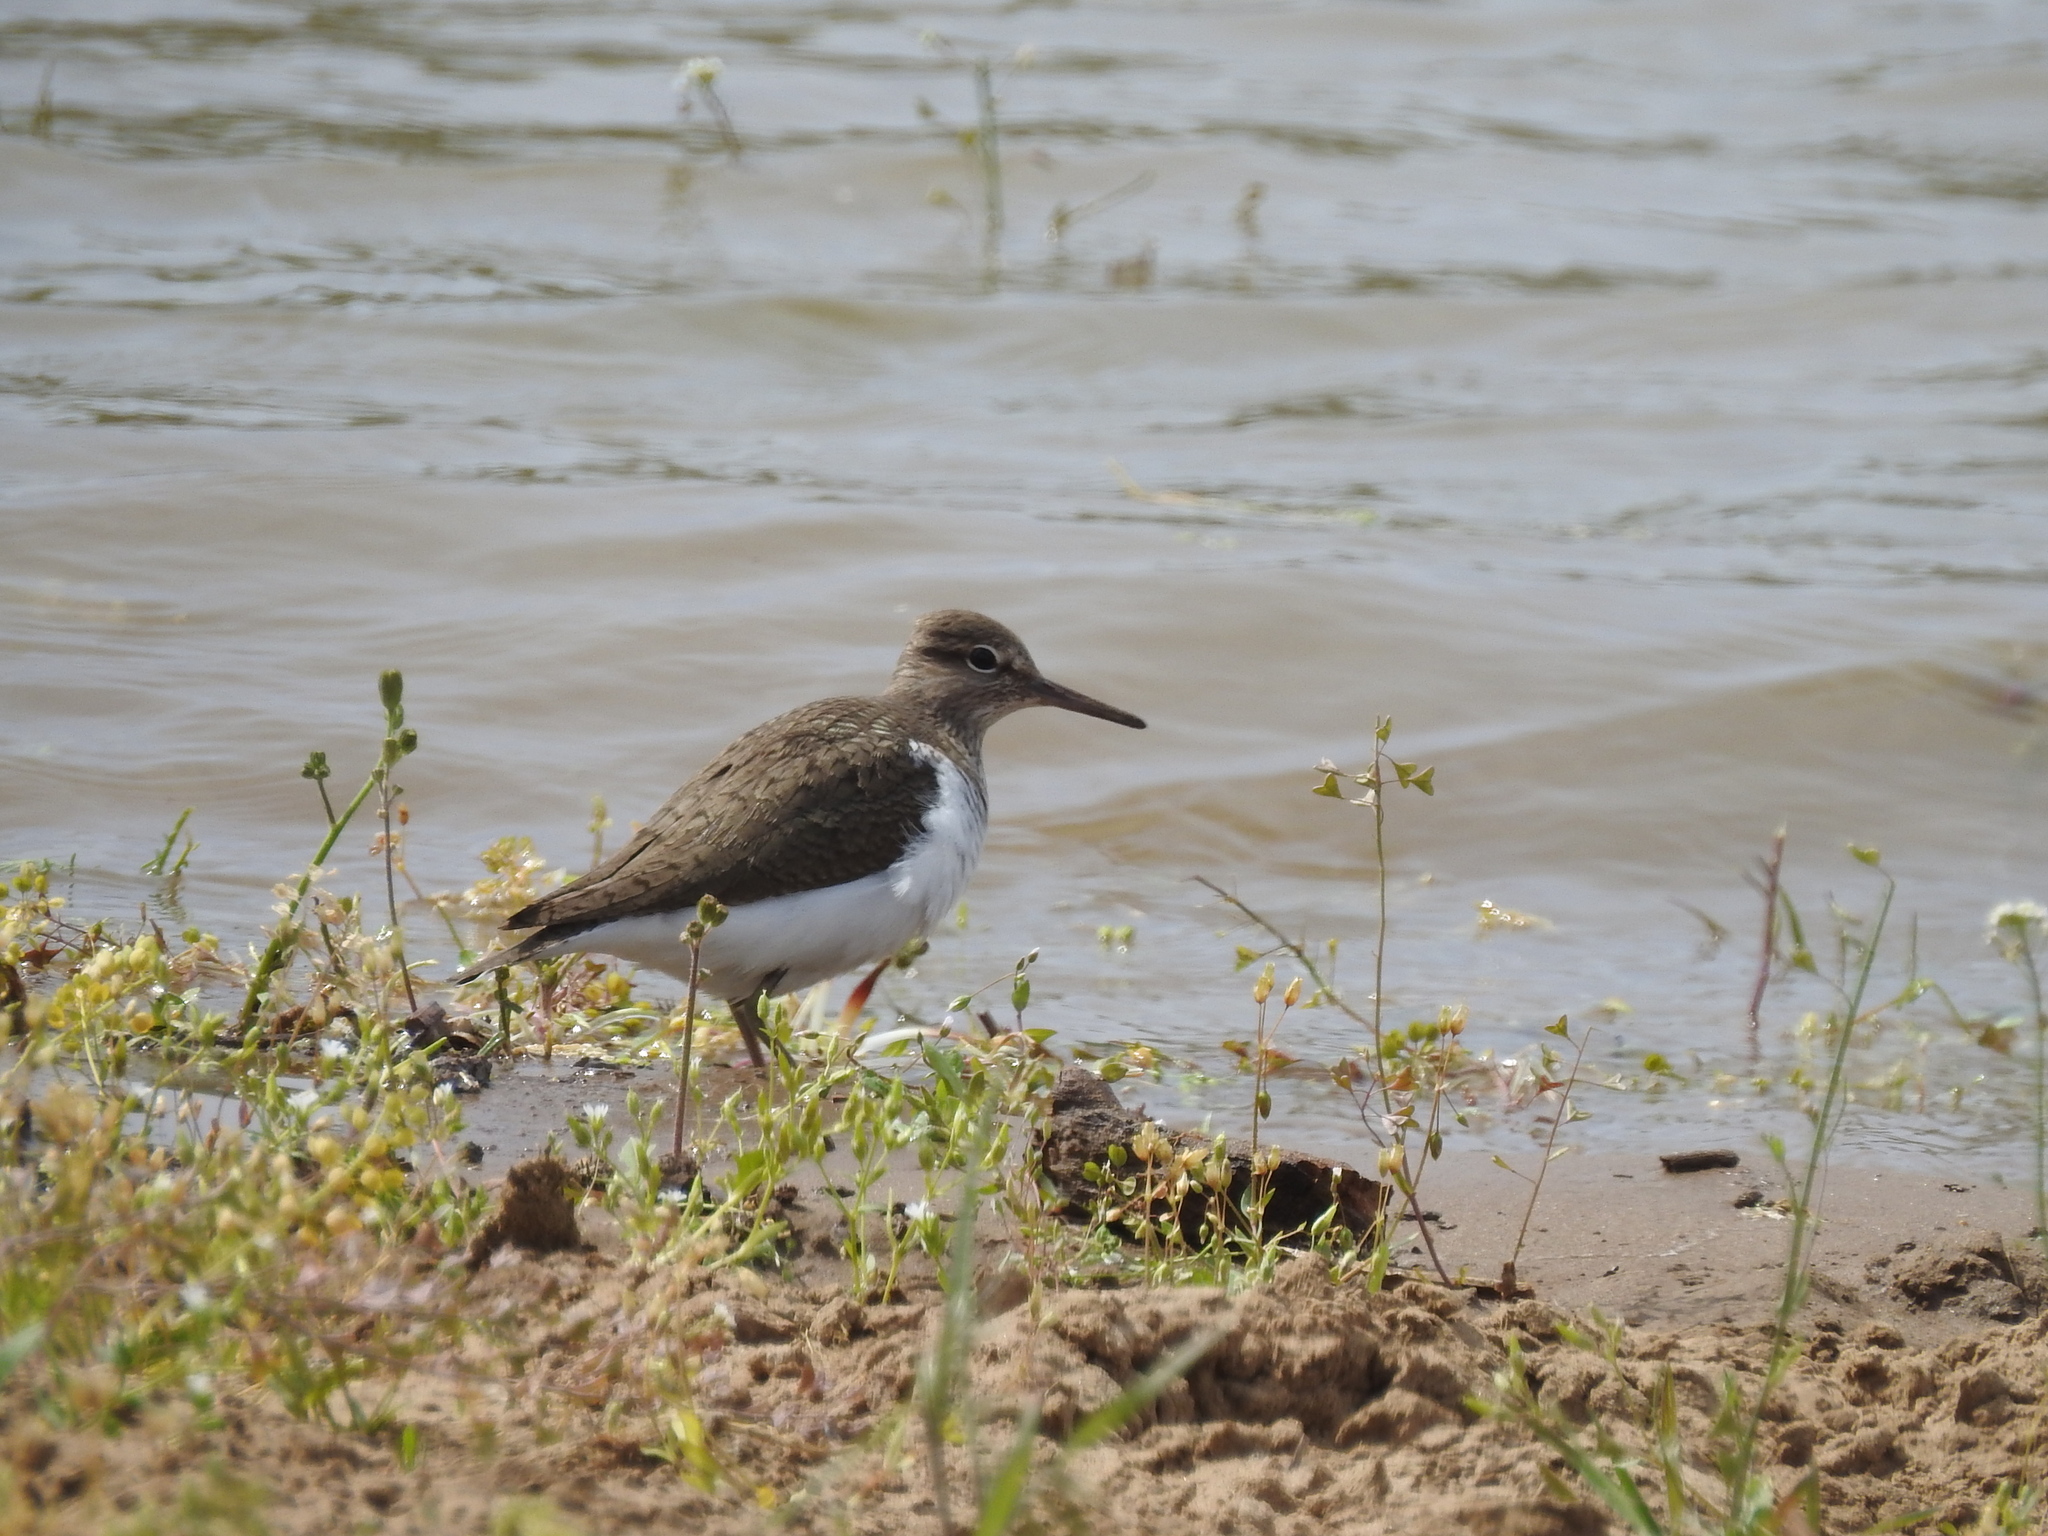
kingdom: Animalia
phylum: Chordata
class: Aves
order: Charadriiformes
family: Scolopacidae
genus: Actitis
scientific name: Actitis hypoleucos
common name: Common sandpiper
